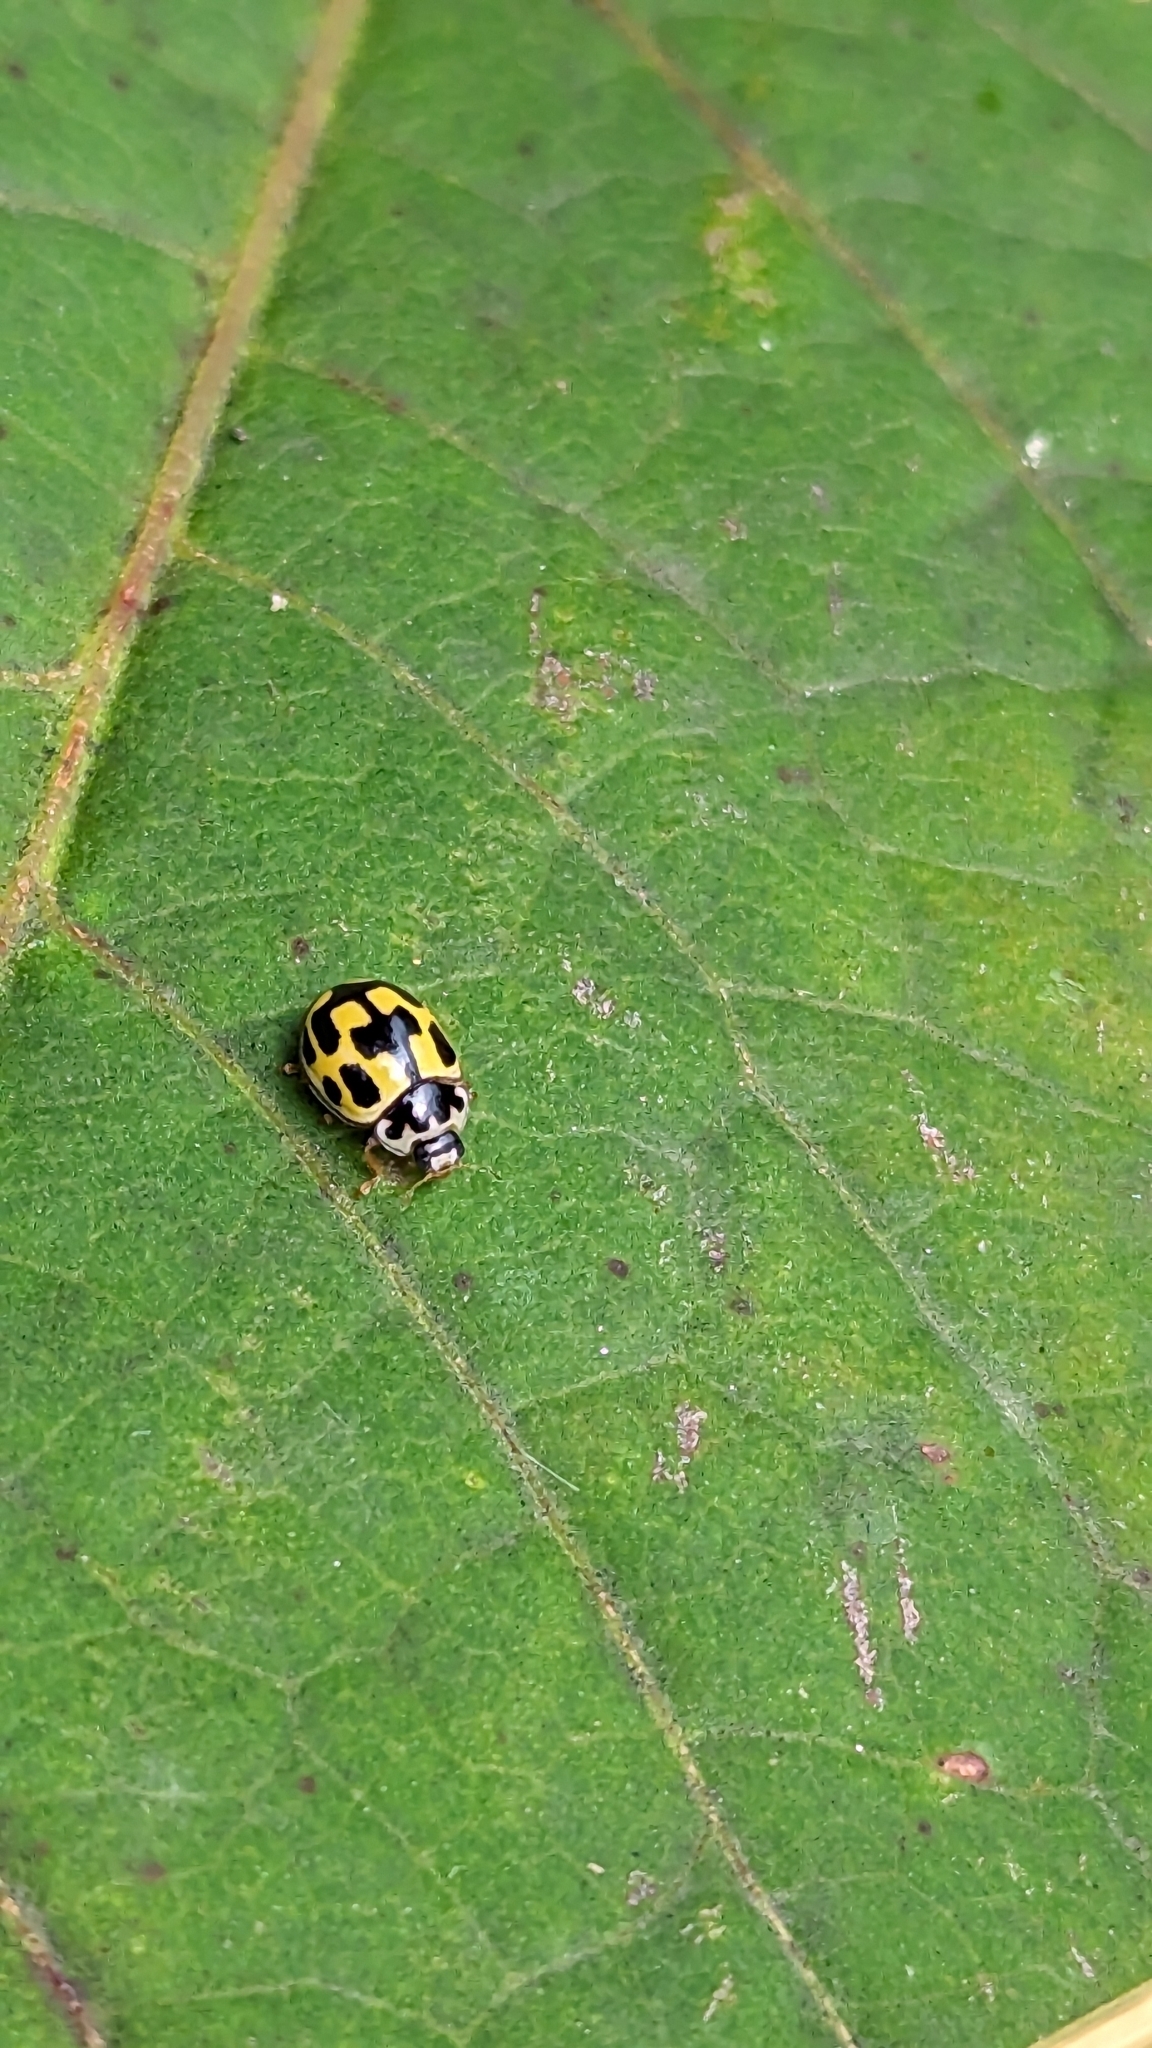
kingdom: Animalia
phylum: Arthropoda
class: Insecta
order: Coleoptera
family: Coccinellidae
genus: Propylaea
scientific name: Propylaea quatuordecimpunctata
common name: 14-spotted ladybird beetle
